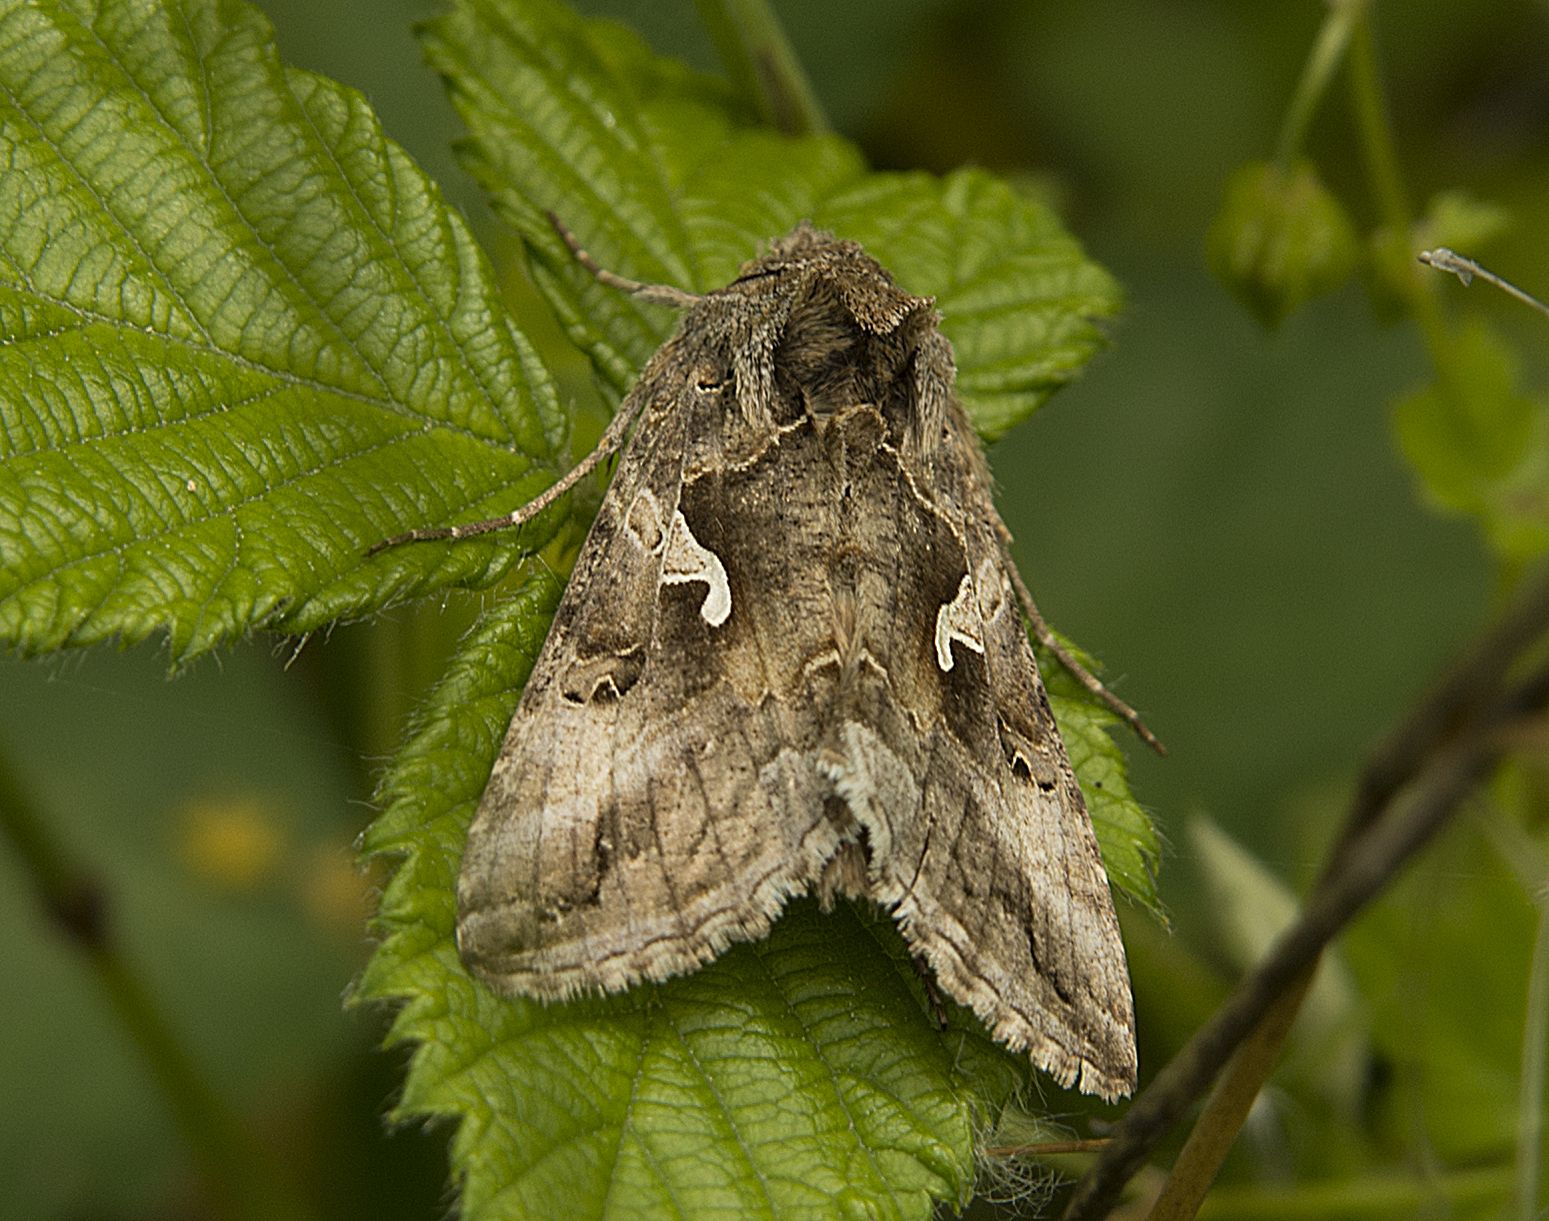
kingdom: Animalia
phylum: Arthropoda
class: Insecta
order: Lepidoptera
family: Noctuidae
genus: Autographa
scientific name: Autographa gamma
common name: Silver y
